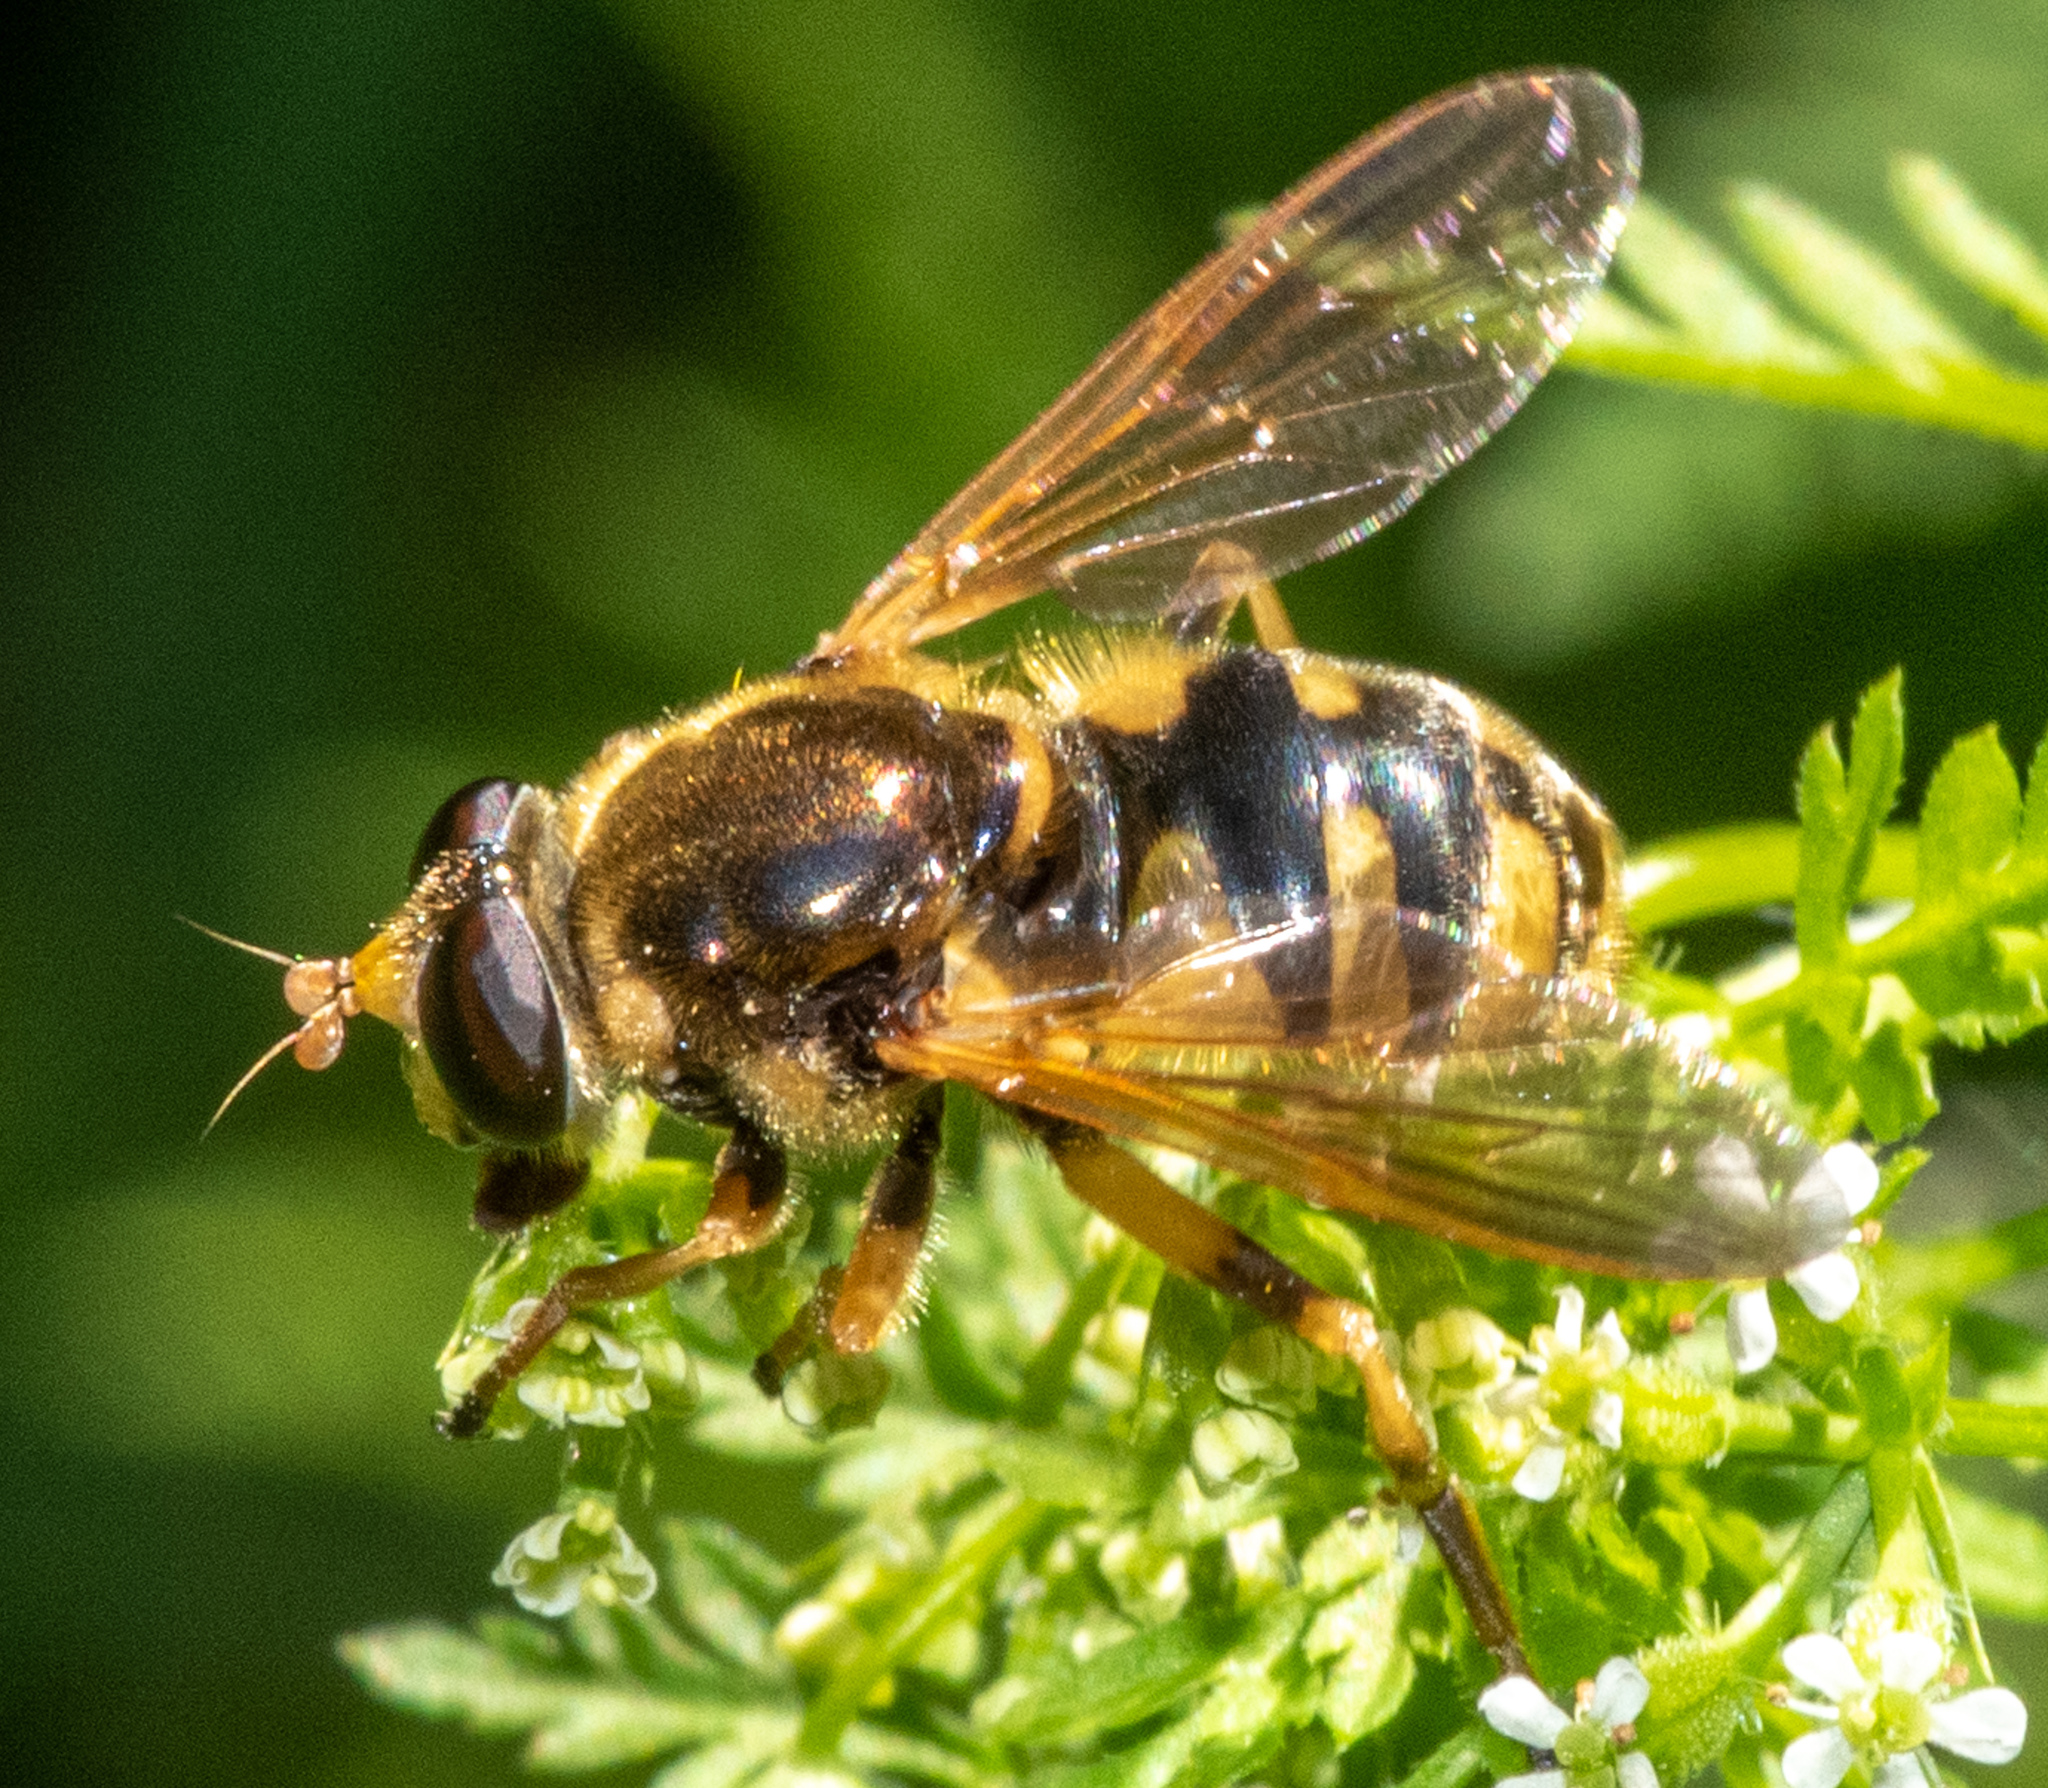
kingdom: Animalia
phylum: Arthropoda
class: Insecta
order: Diptera
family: Syrphidae
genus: Blera
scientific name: Blera humeralis
